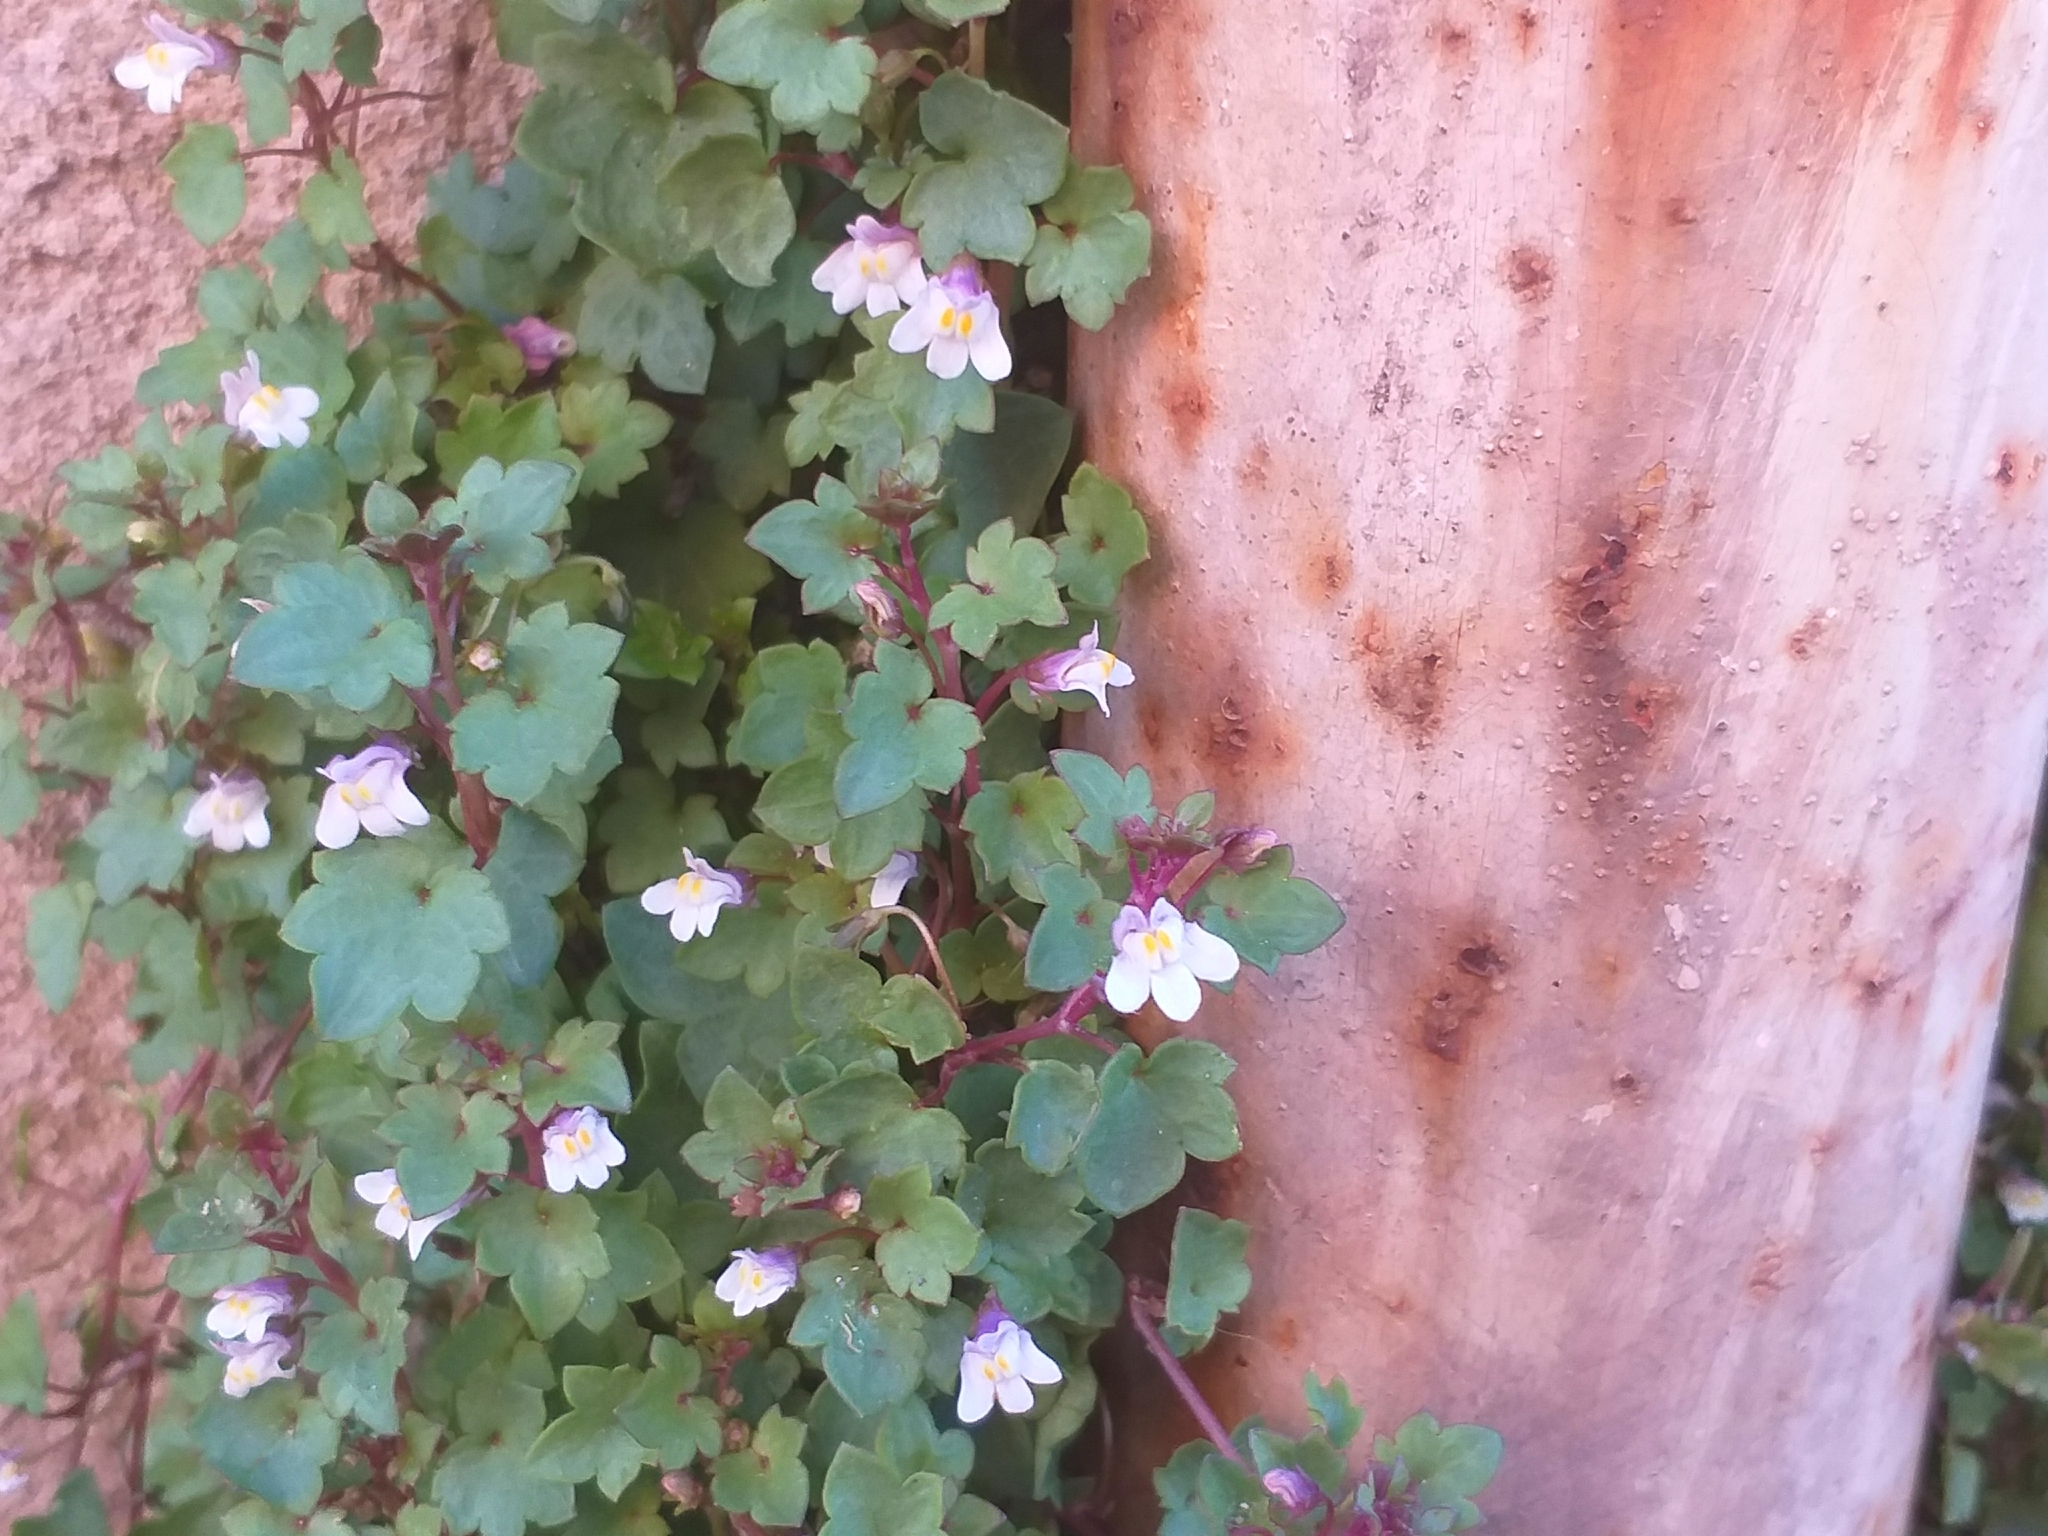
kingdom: Plantae
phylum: Tracheophyta
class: Magnoliopsida
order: Lamiales
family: Plantaginaceae
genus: Cymbalaria
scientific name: Cymbalaria muralis
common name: Ivy-leaved toadflax
